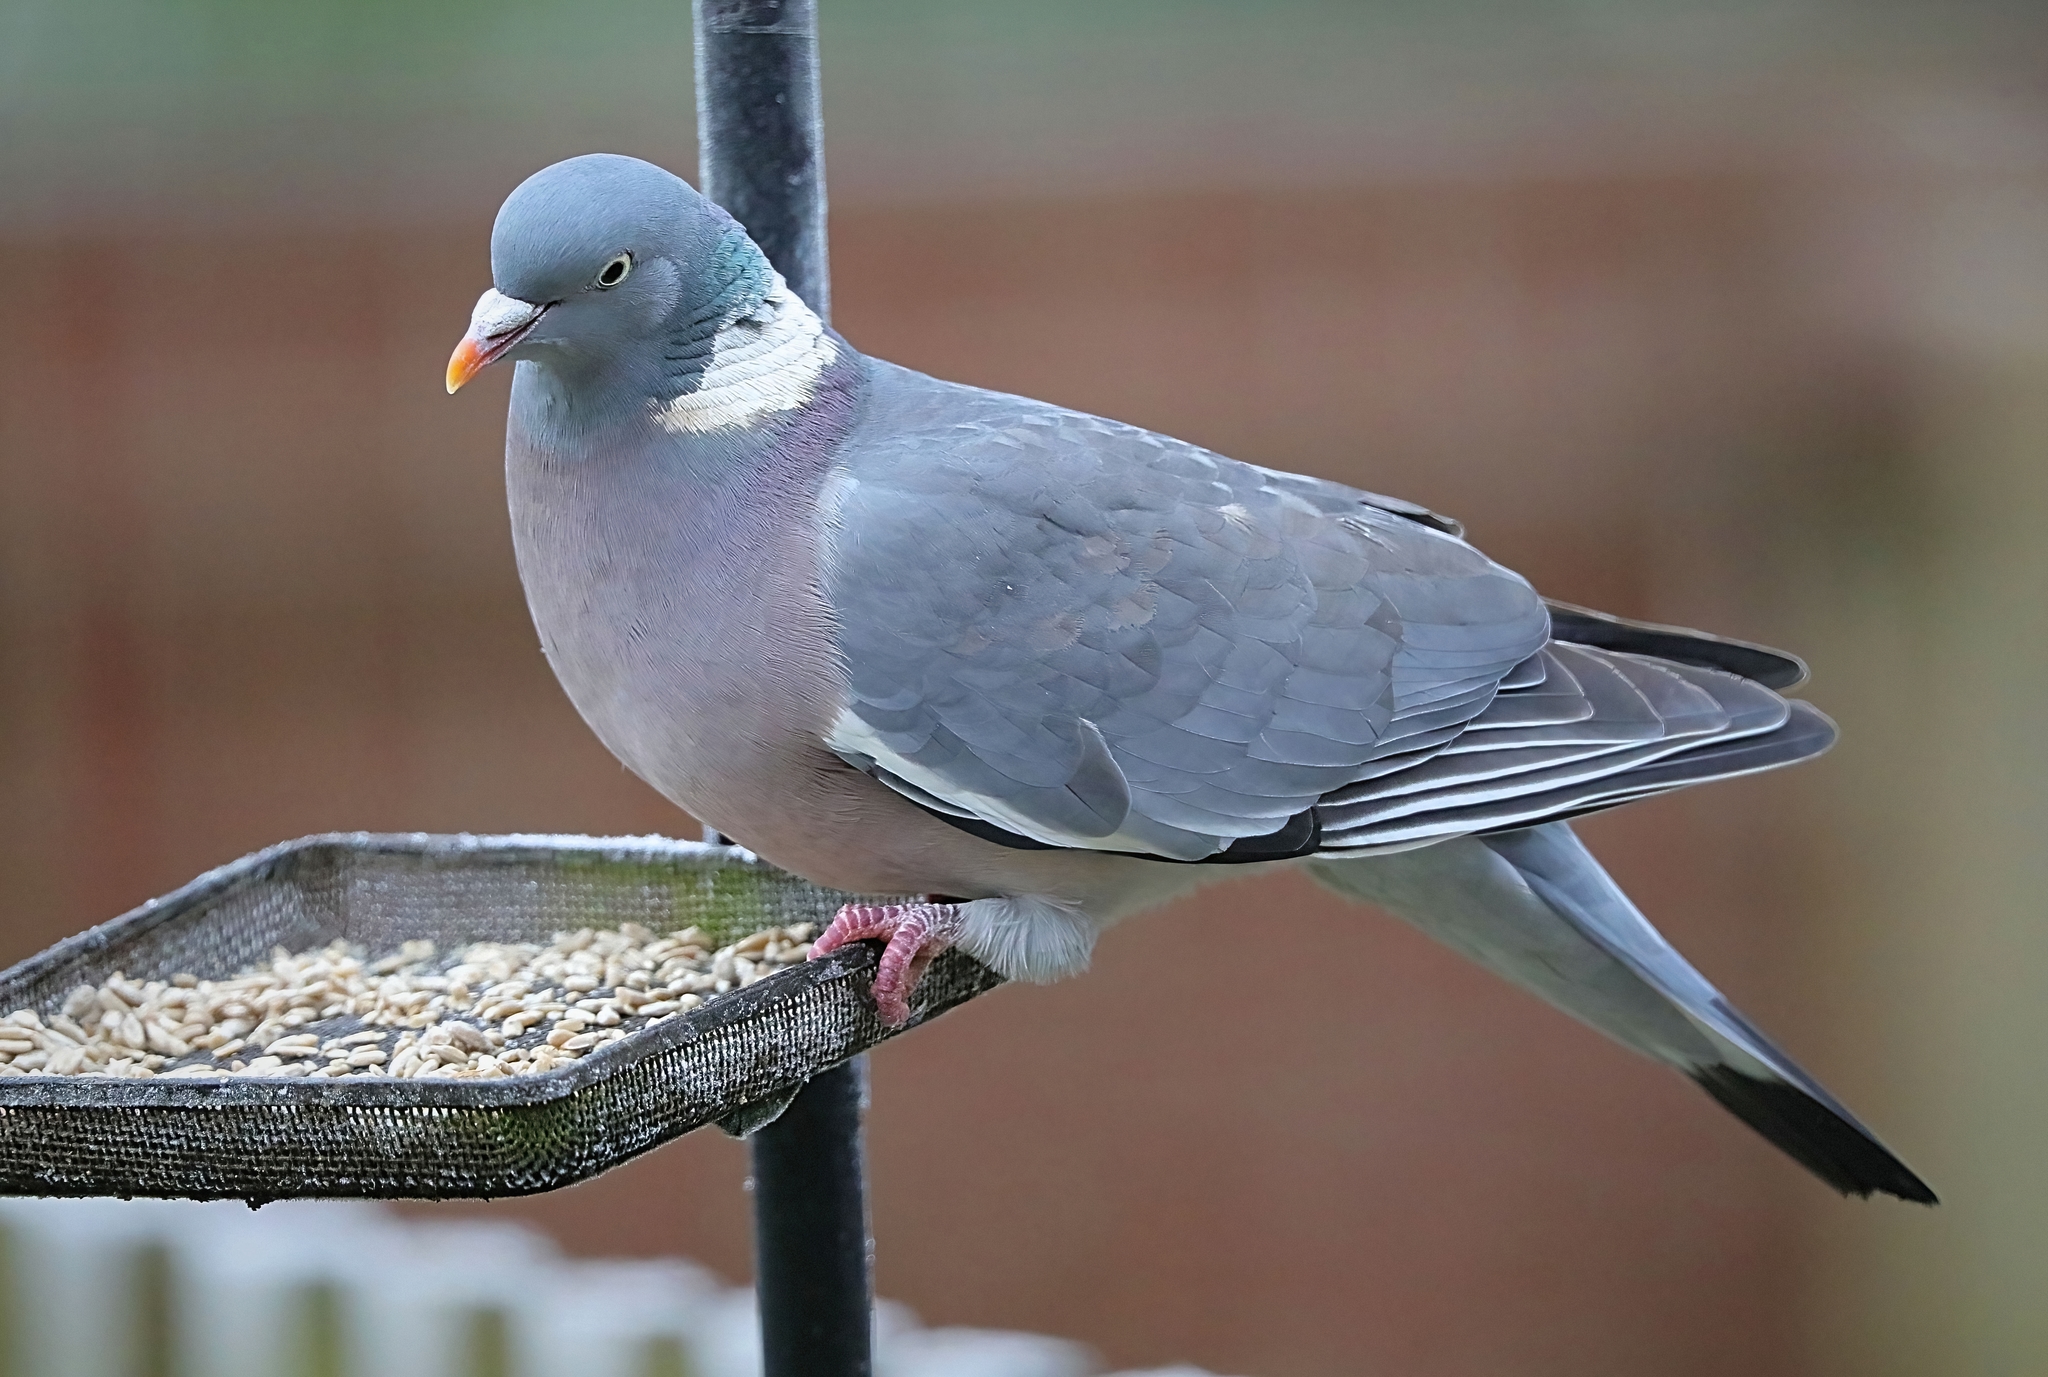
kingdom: Animalia
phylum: Chordata
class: Aves
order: Columbiformes
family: Columbidae
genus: Columba
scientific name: Columba palumbus
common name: Common wood pigeon
